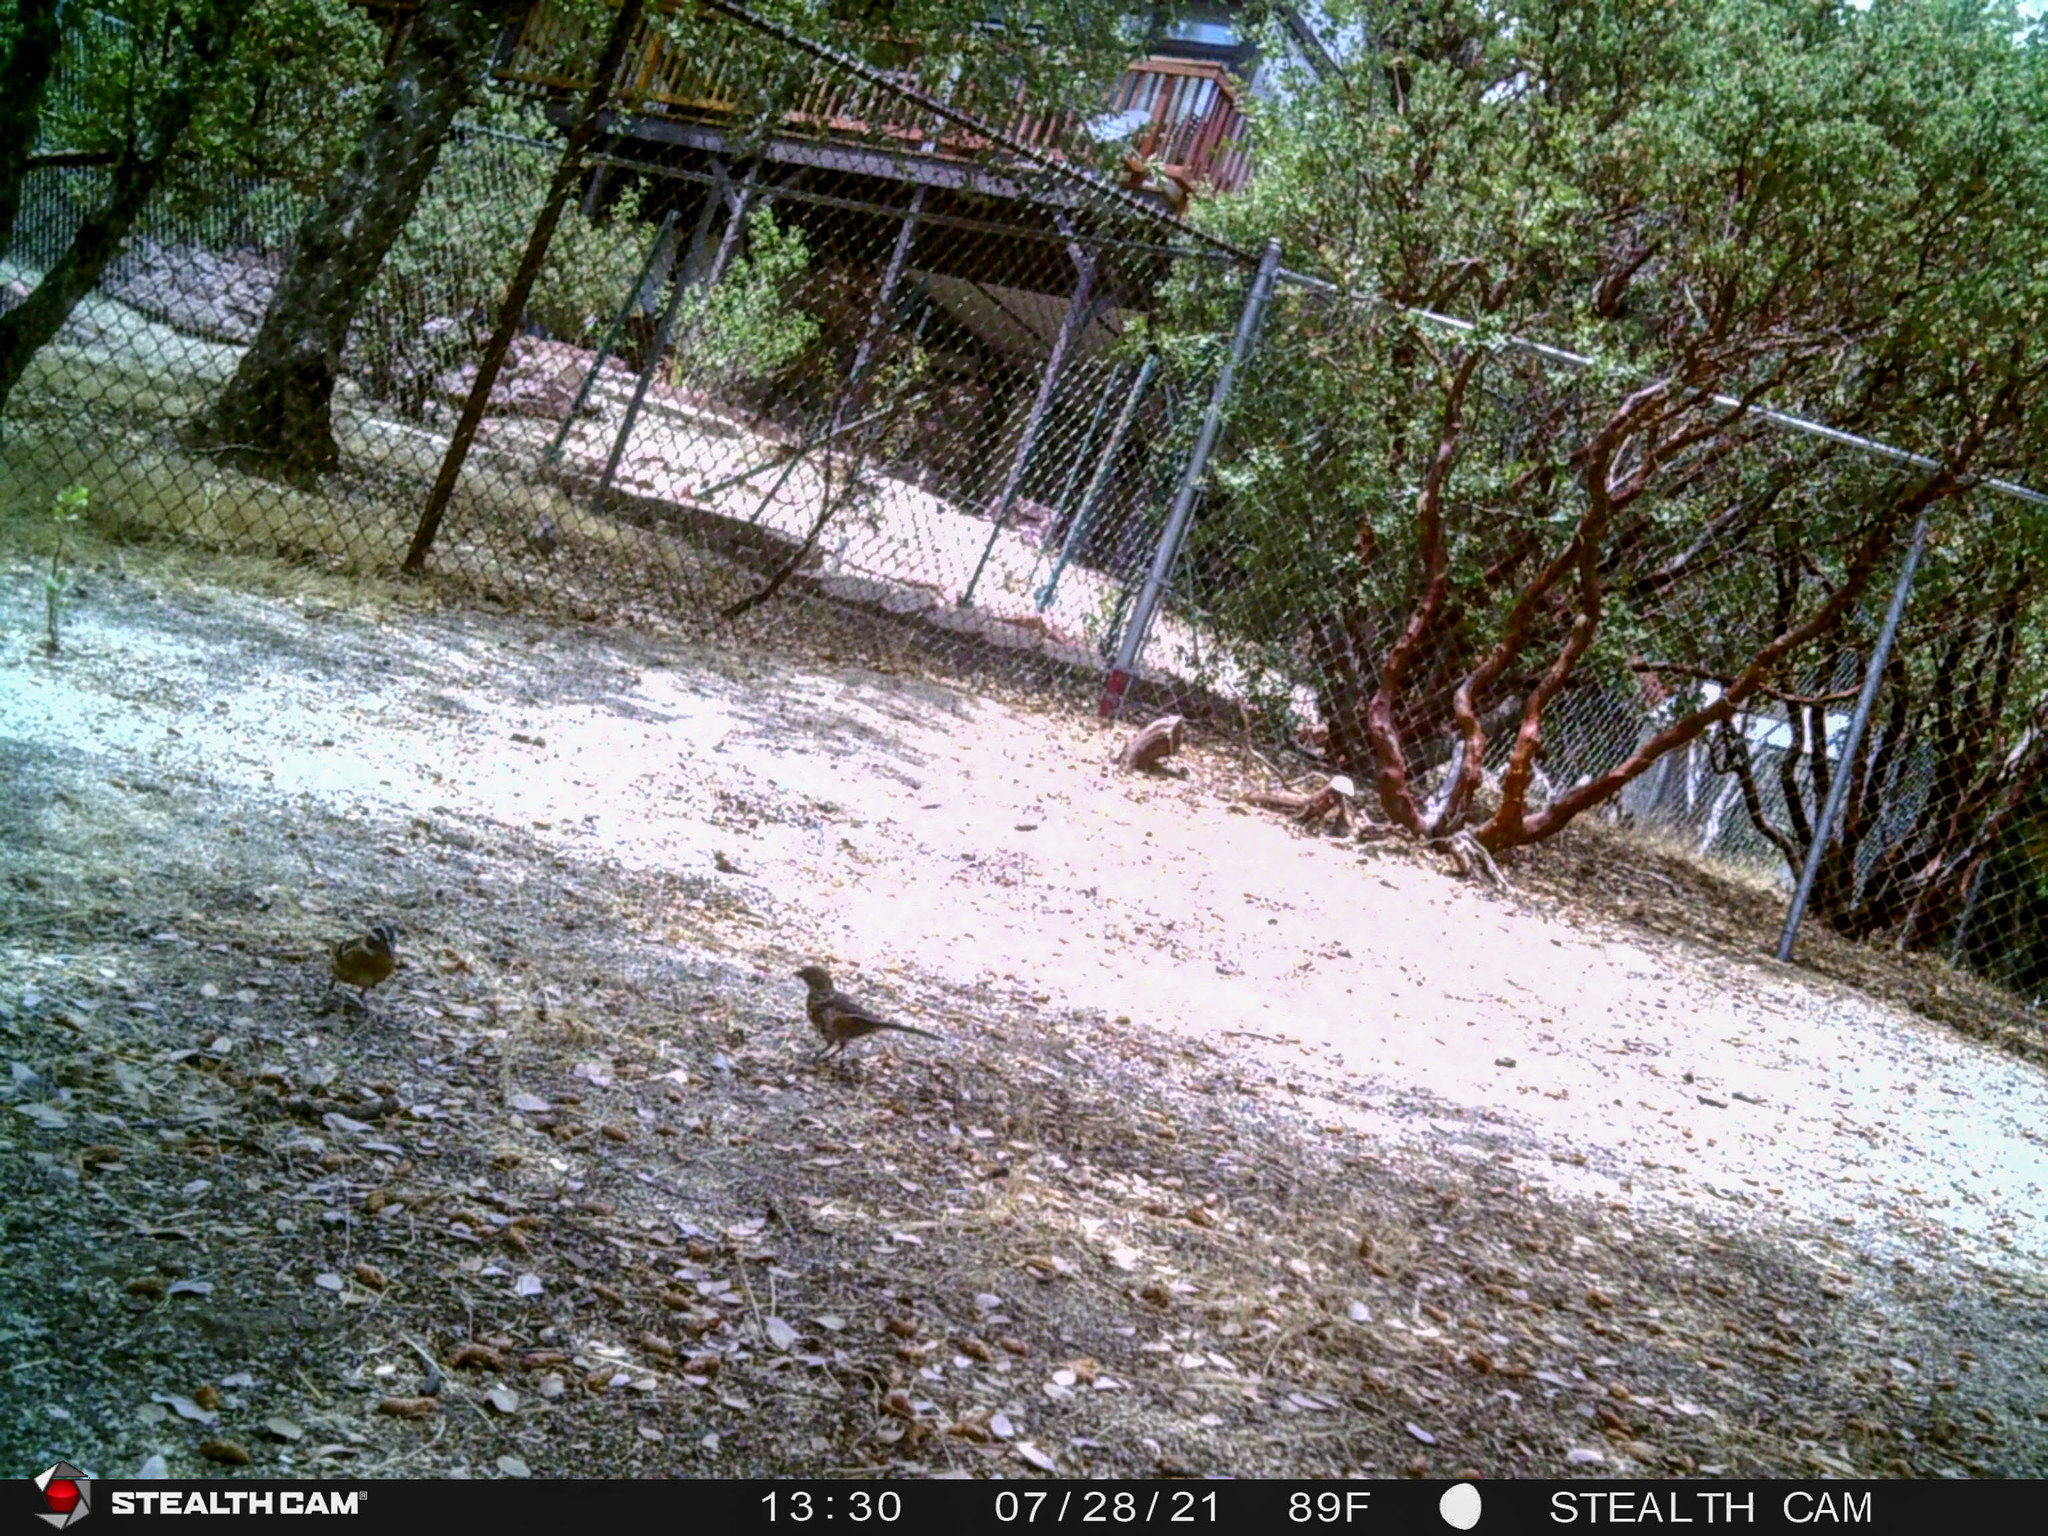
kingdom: Animalia
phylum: Chordata
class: Aves
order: Passeriformes
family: Passerellidae
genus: Pipilo
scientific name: Pipilo maculatus
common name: Spotted towhee
